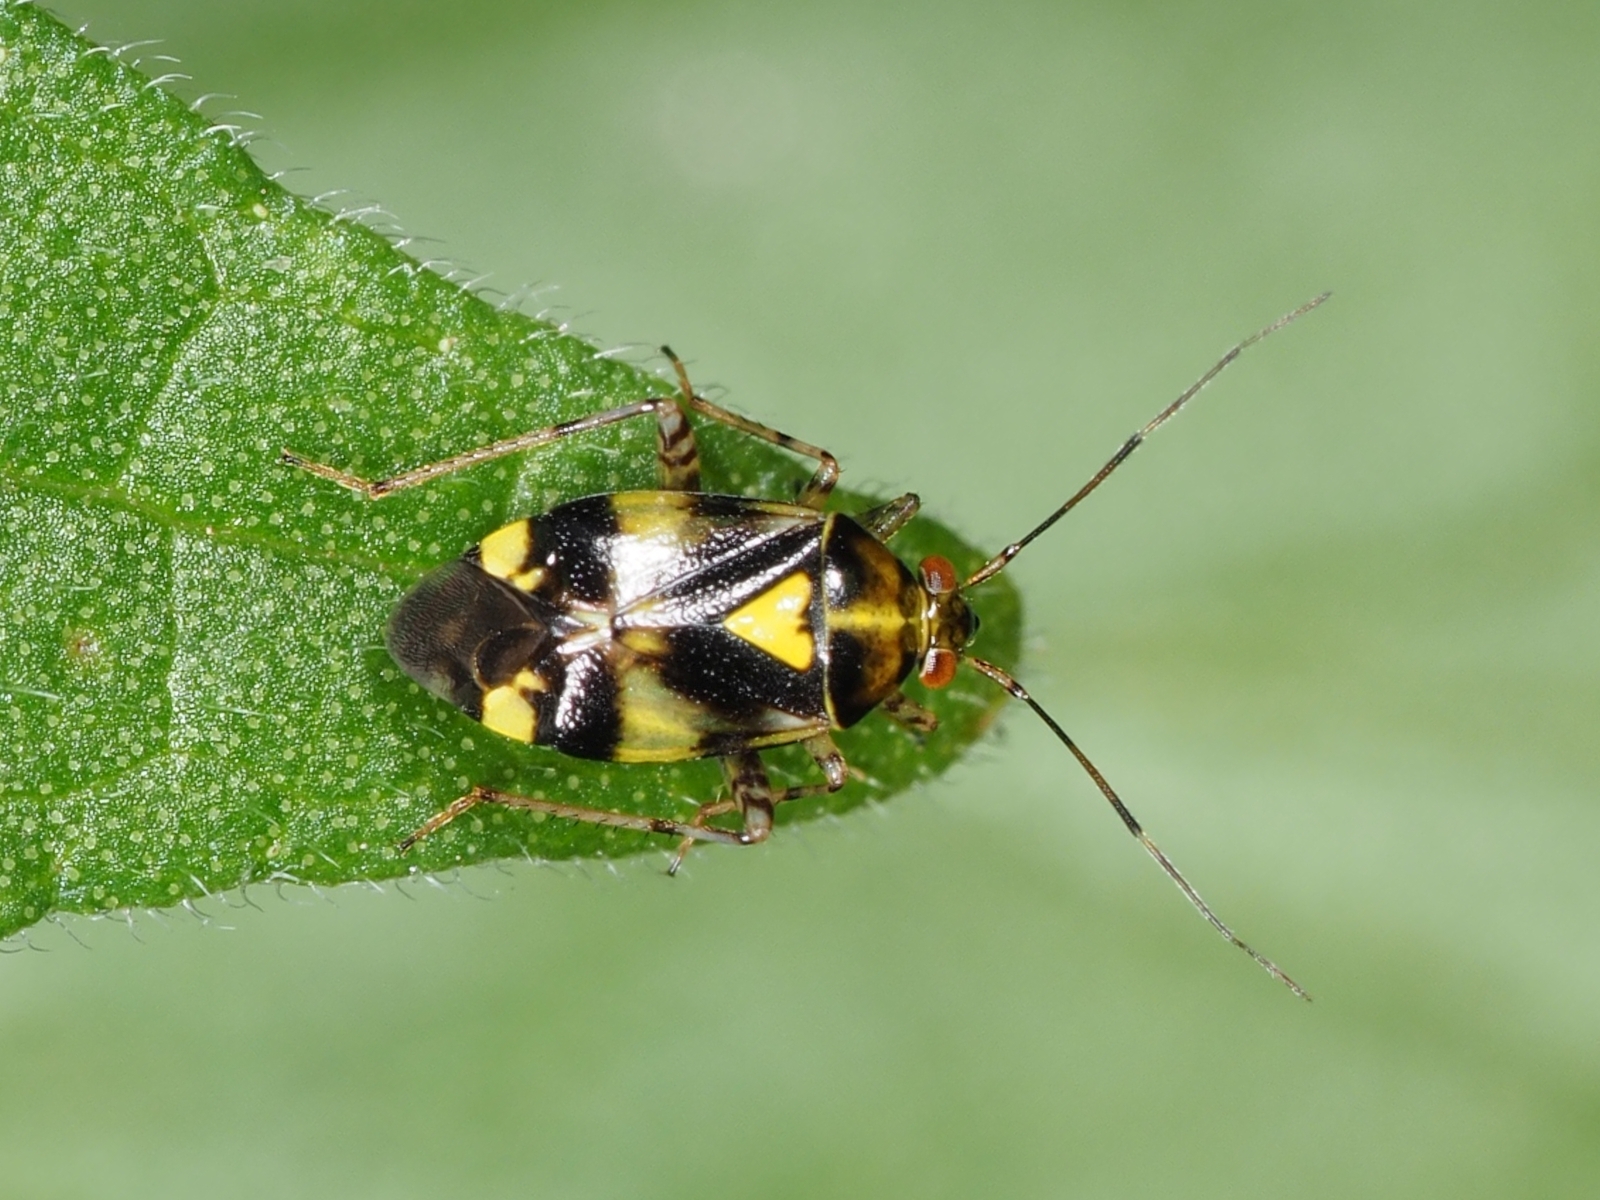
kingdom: Animalia
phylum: Arthropoda
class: Insecta
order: Hemiptera
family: Miridae
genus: Liocoris
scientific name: Liocoris tripustulatus
